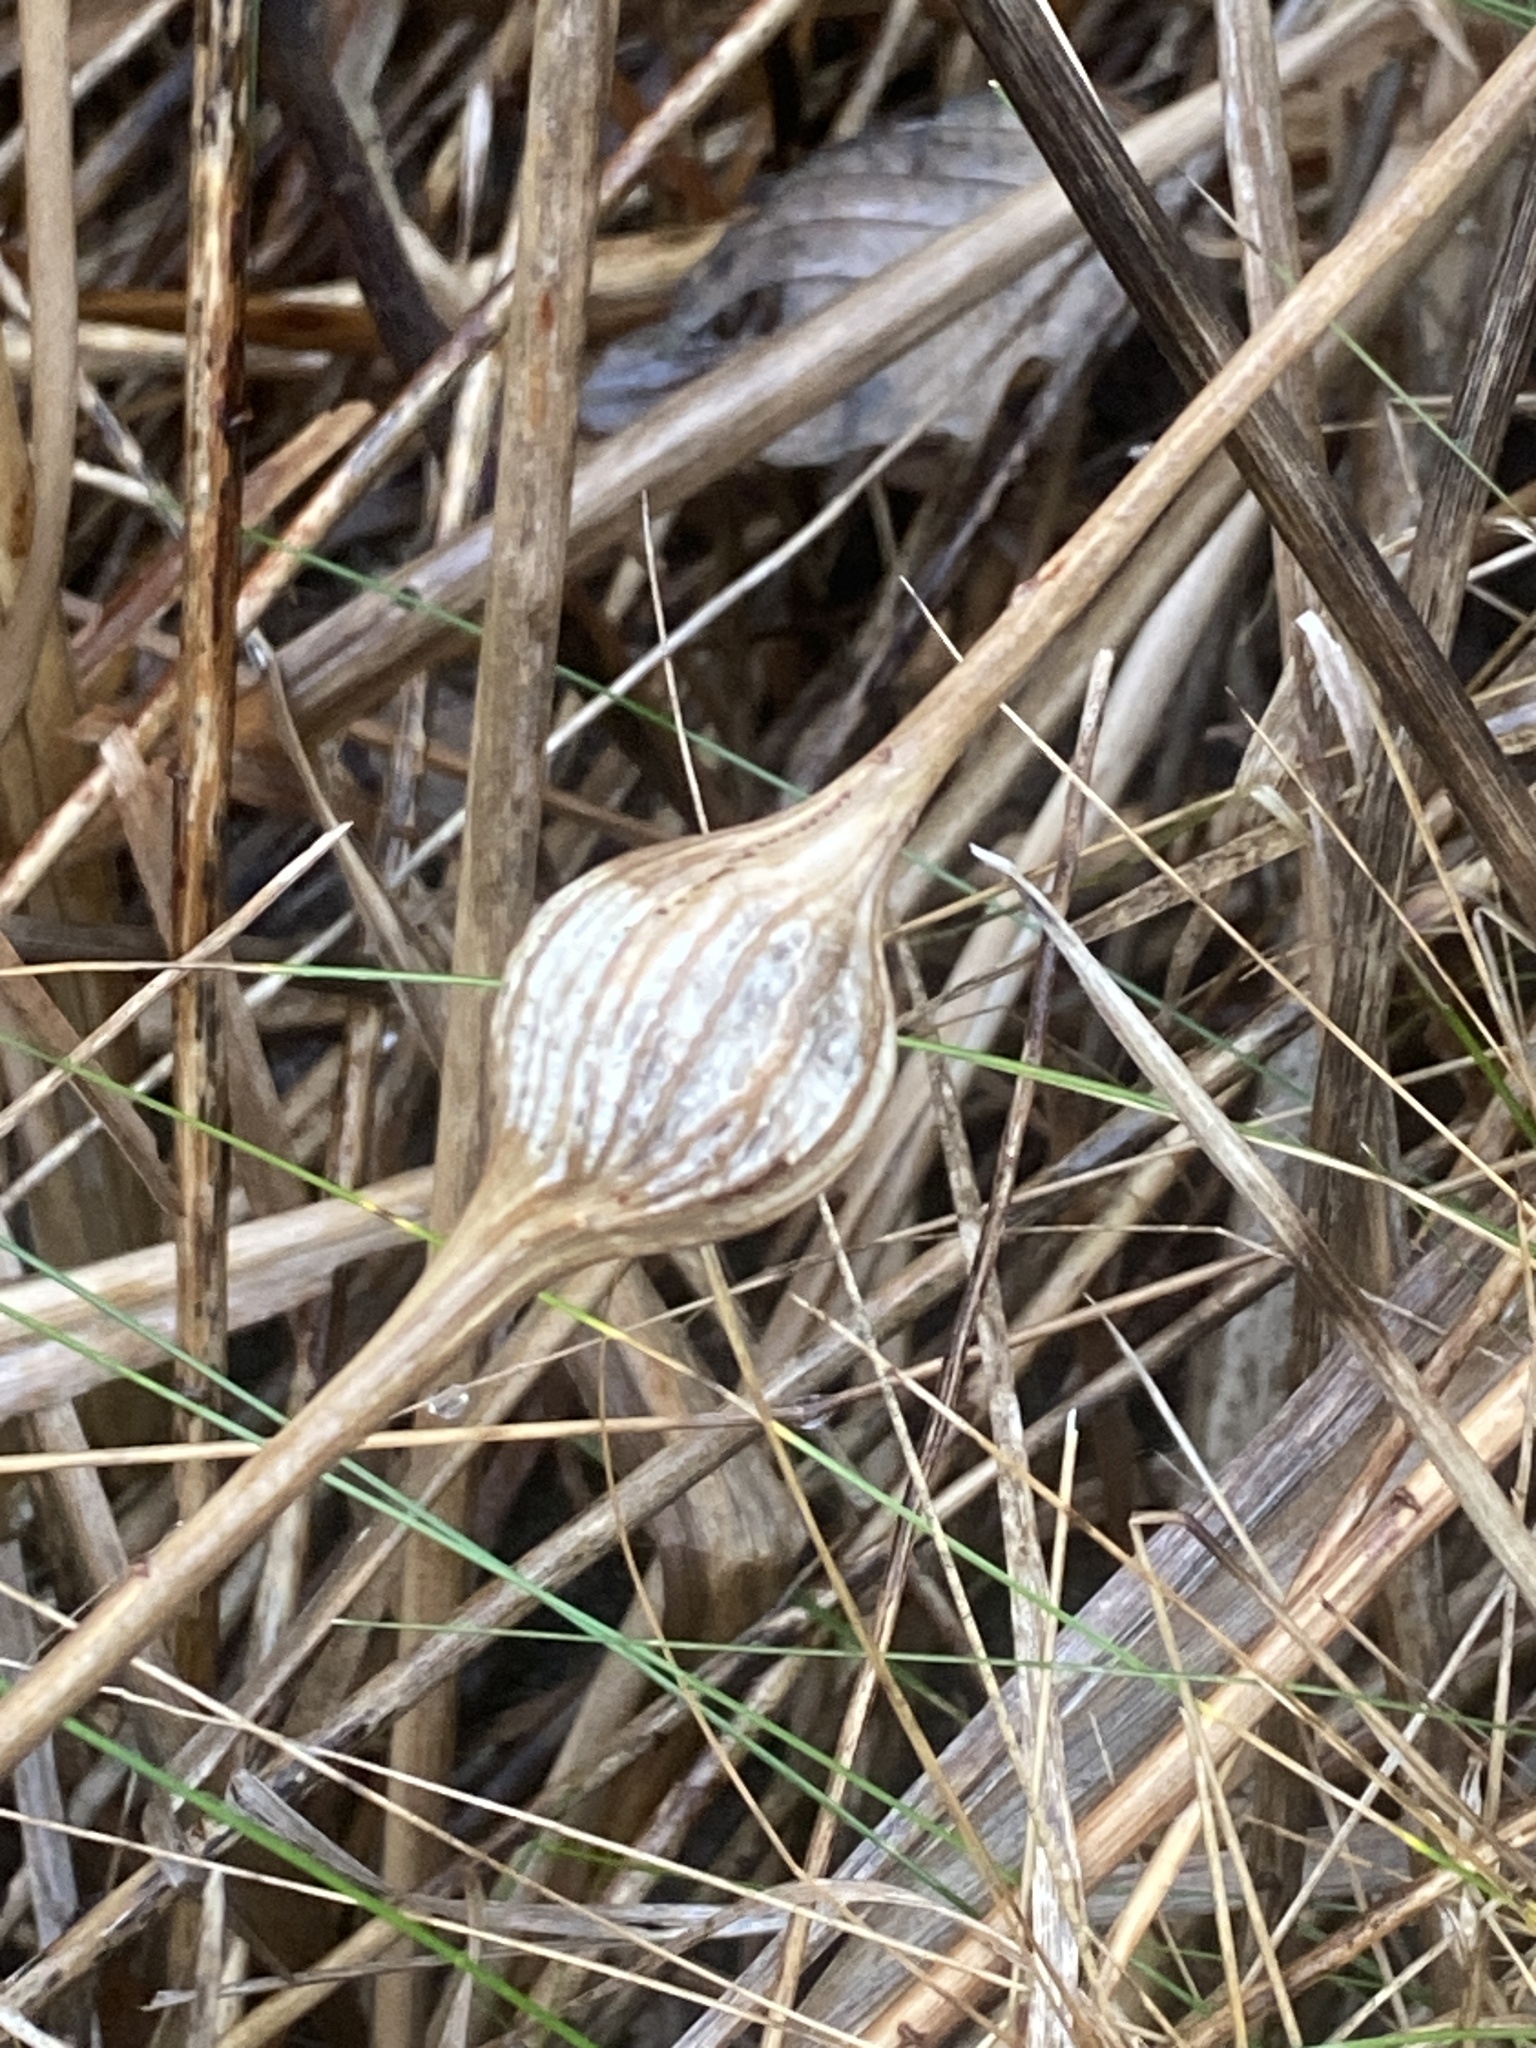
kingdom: Animalia
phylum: Arthropoda
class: Insecta
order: Diptera
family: Tephritidae
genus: Eurosta
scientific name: Eurosta solidaginis
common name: Goldenrod gall fly
